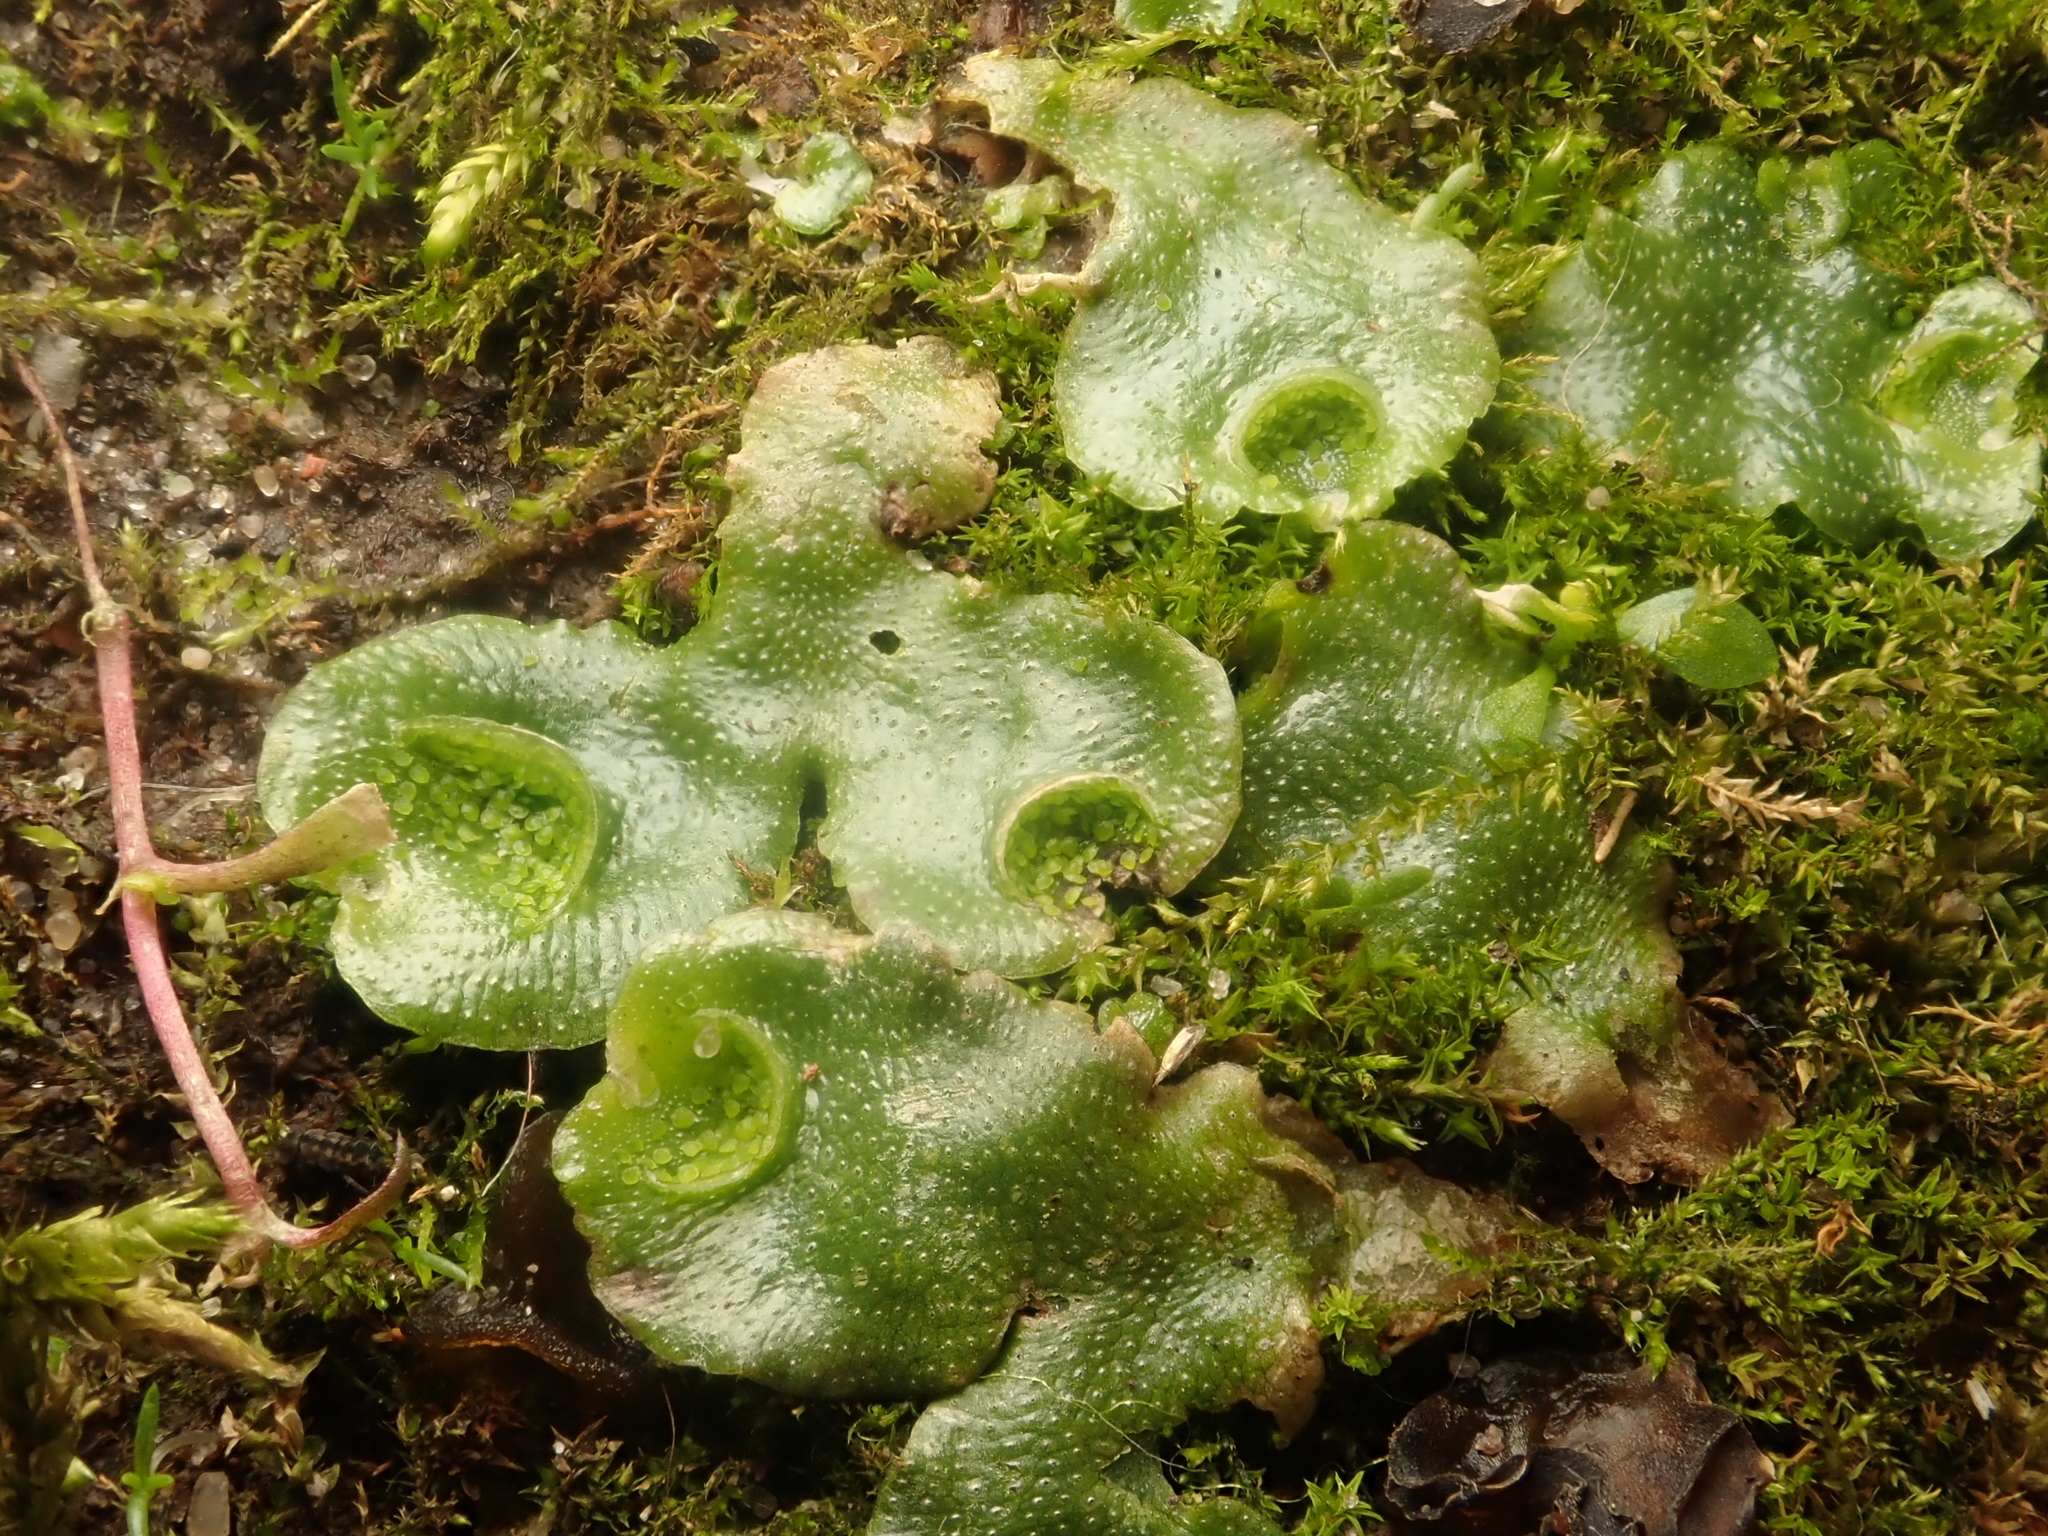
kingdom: Plantae
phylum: Marchantiophyta
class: Marchantiopsida
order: Lunulariales
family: Lunulariaceae
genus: Lunularia
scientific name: Lunularia cruciata
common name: Crescent-cup liverwort
